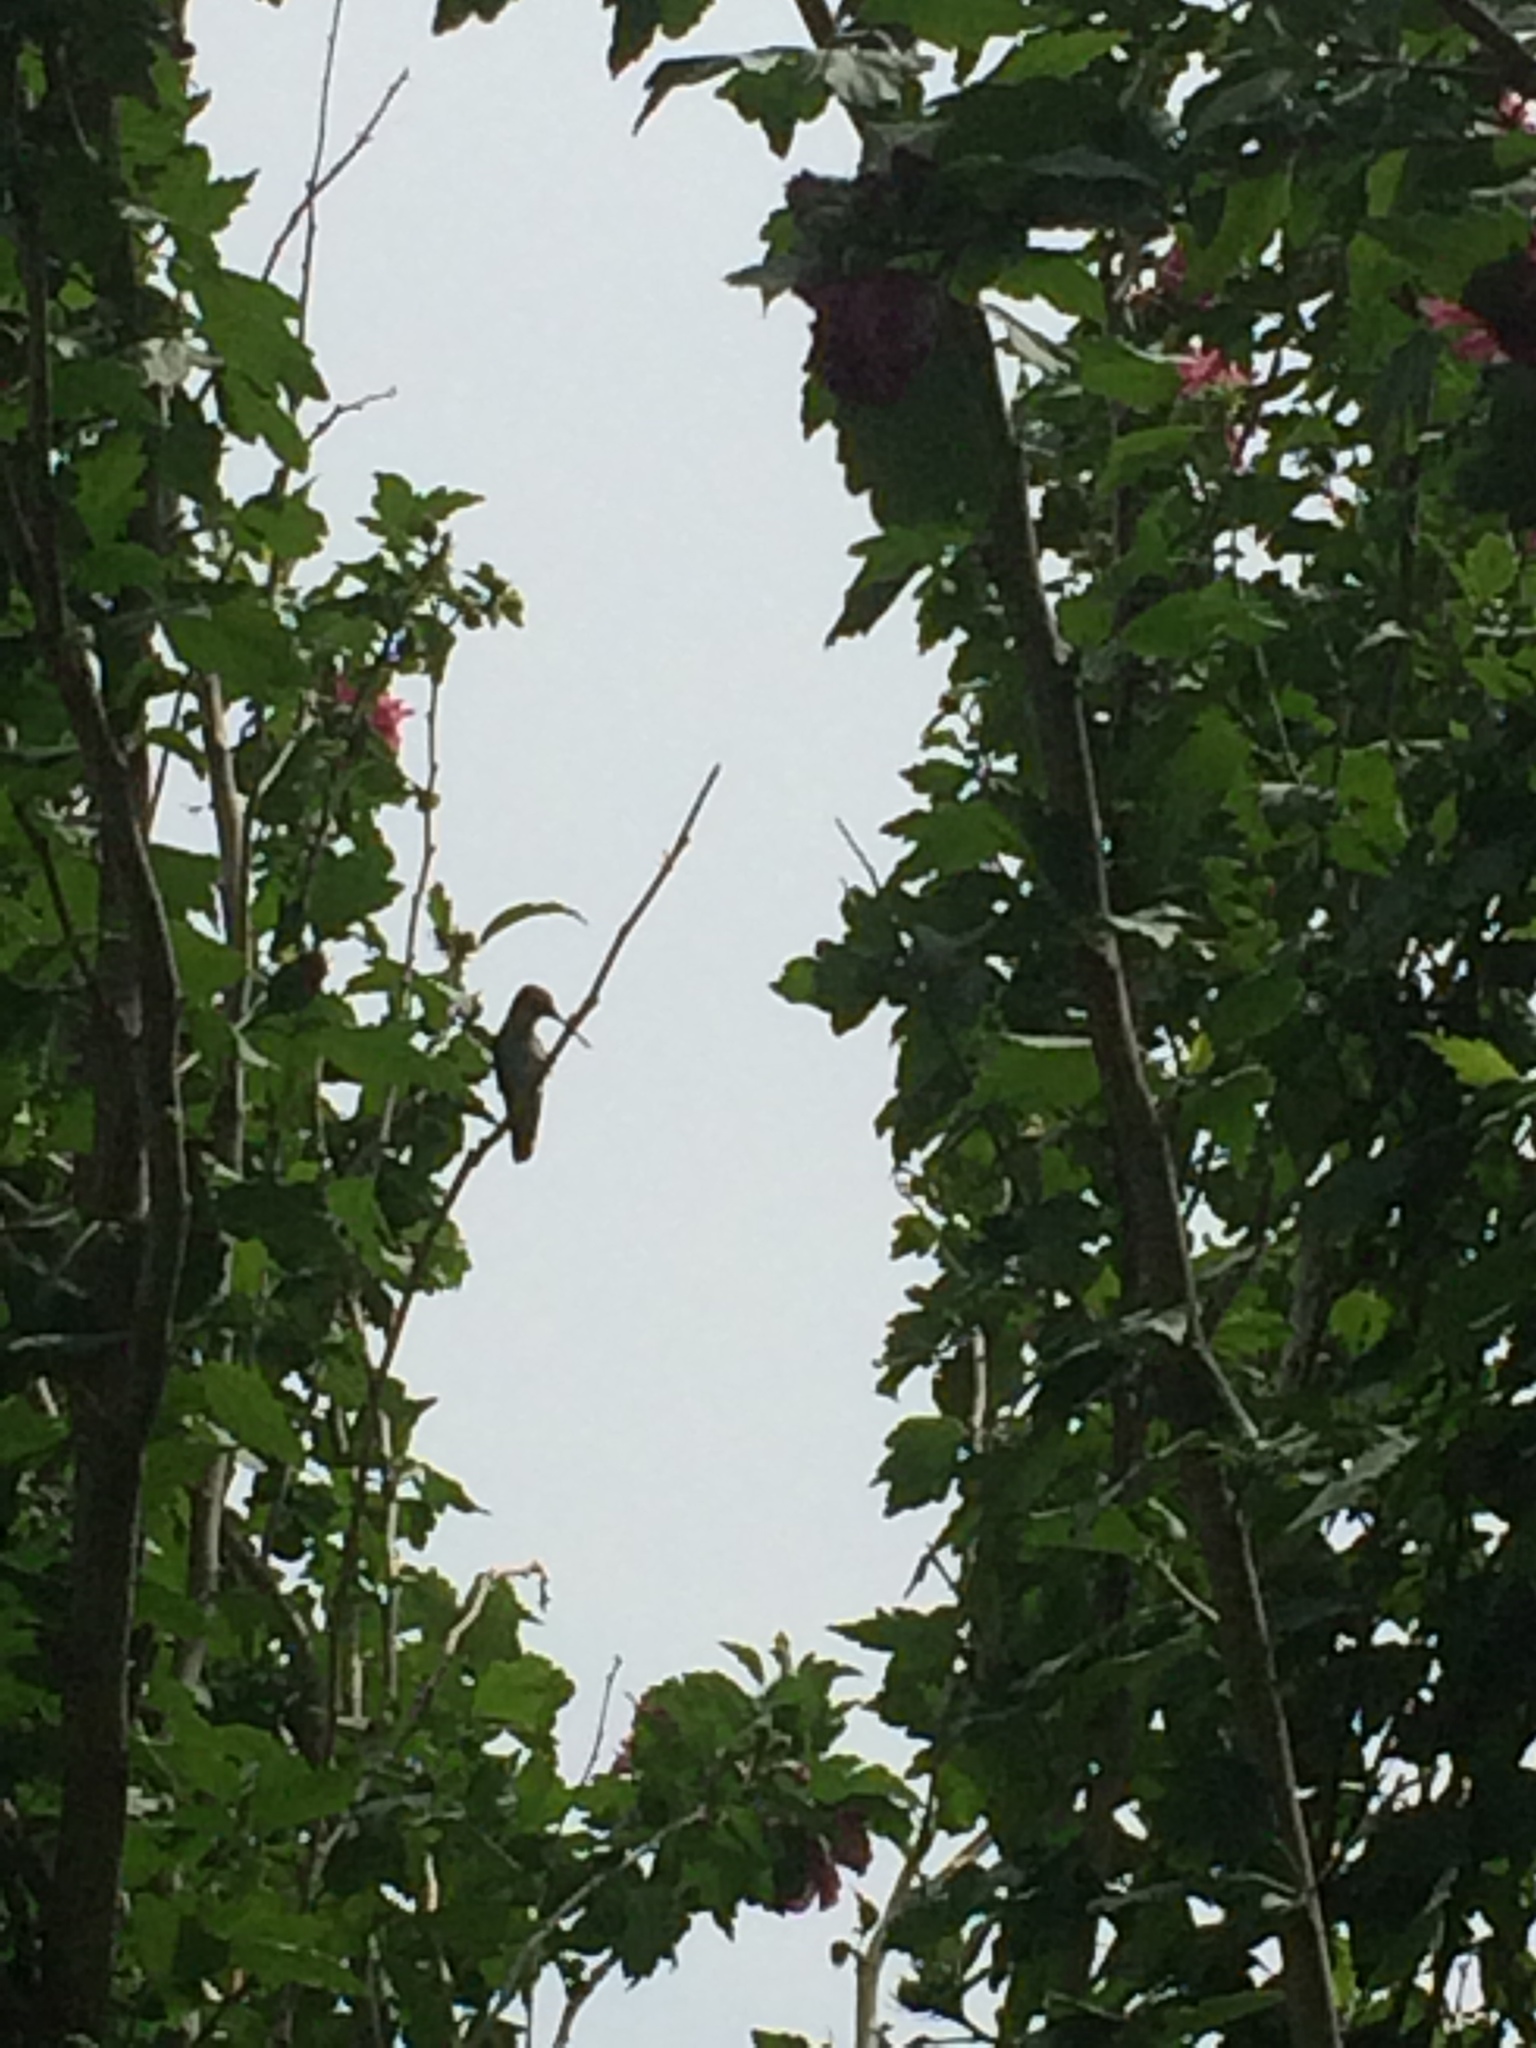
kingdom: Animalia
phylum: Chordata
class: Aves
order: Apodiformes
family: Trochilidae
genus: Archilochus
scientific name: Archilochus colubris
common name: Ruby-throated hummingbird
